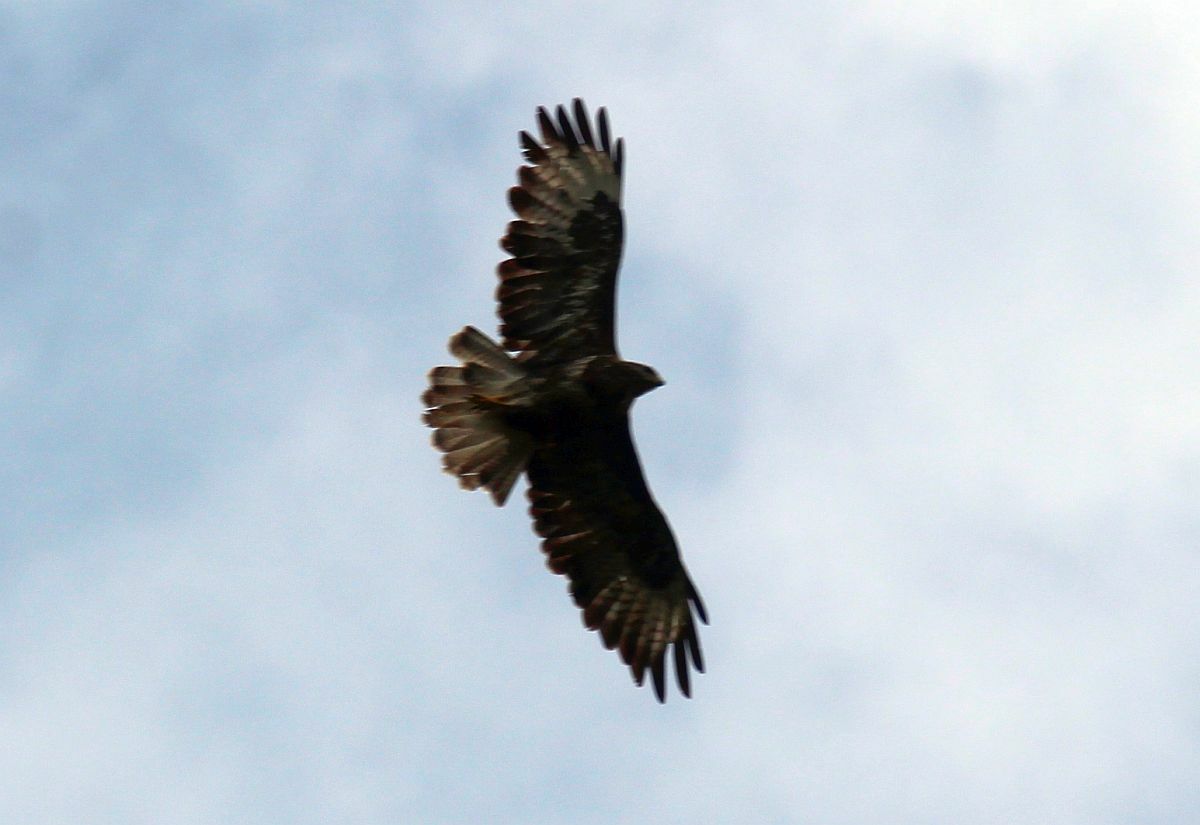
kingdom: Animalia
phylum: Chordata
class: Aves
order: Accipitriformes
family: Accipitridae
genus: Buteo
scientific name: Buteo buteo
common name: Common buzzard
